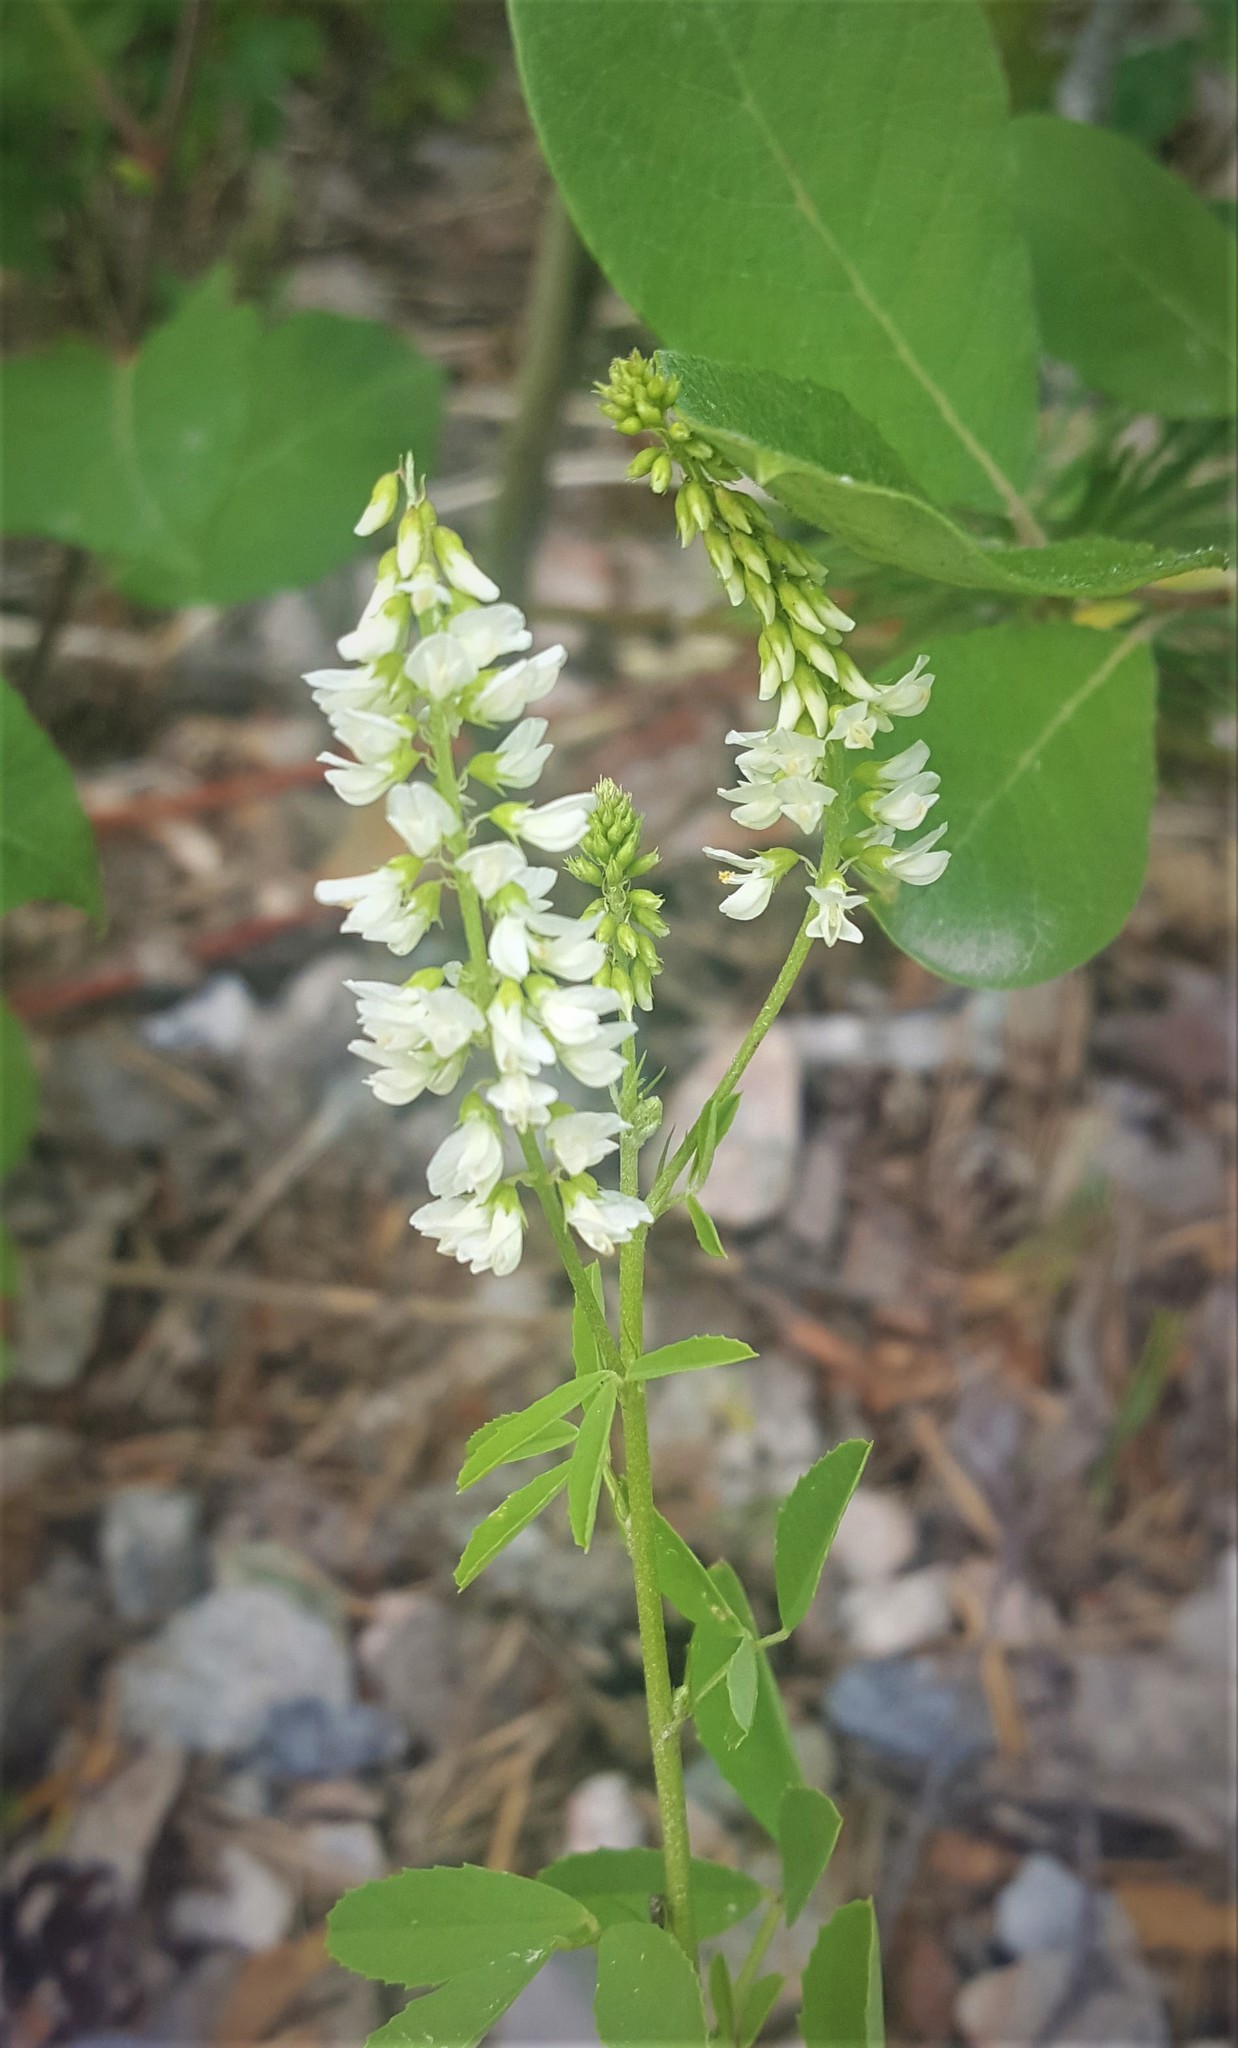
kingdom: Plantae
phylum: Tracheophyta
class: Magnoliopsida
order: Fabales
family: Fabaceae
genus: Melilotus
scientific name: Melilotus albus
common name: White melilot
